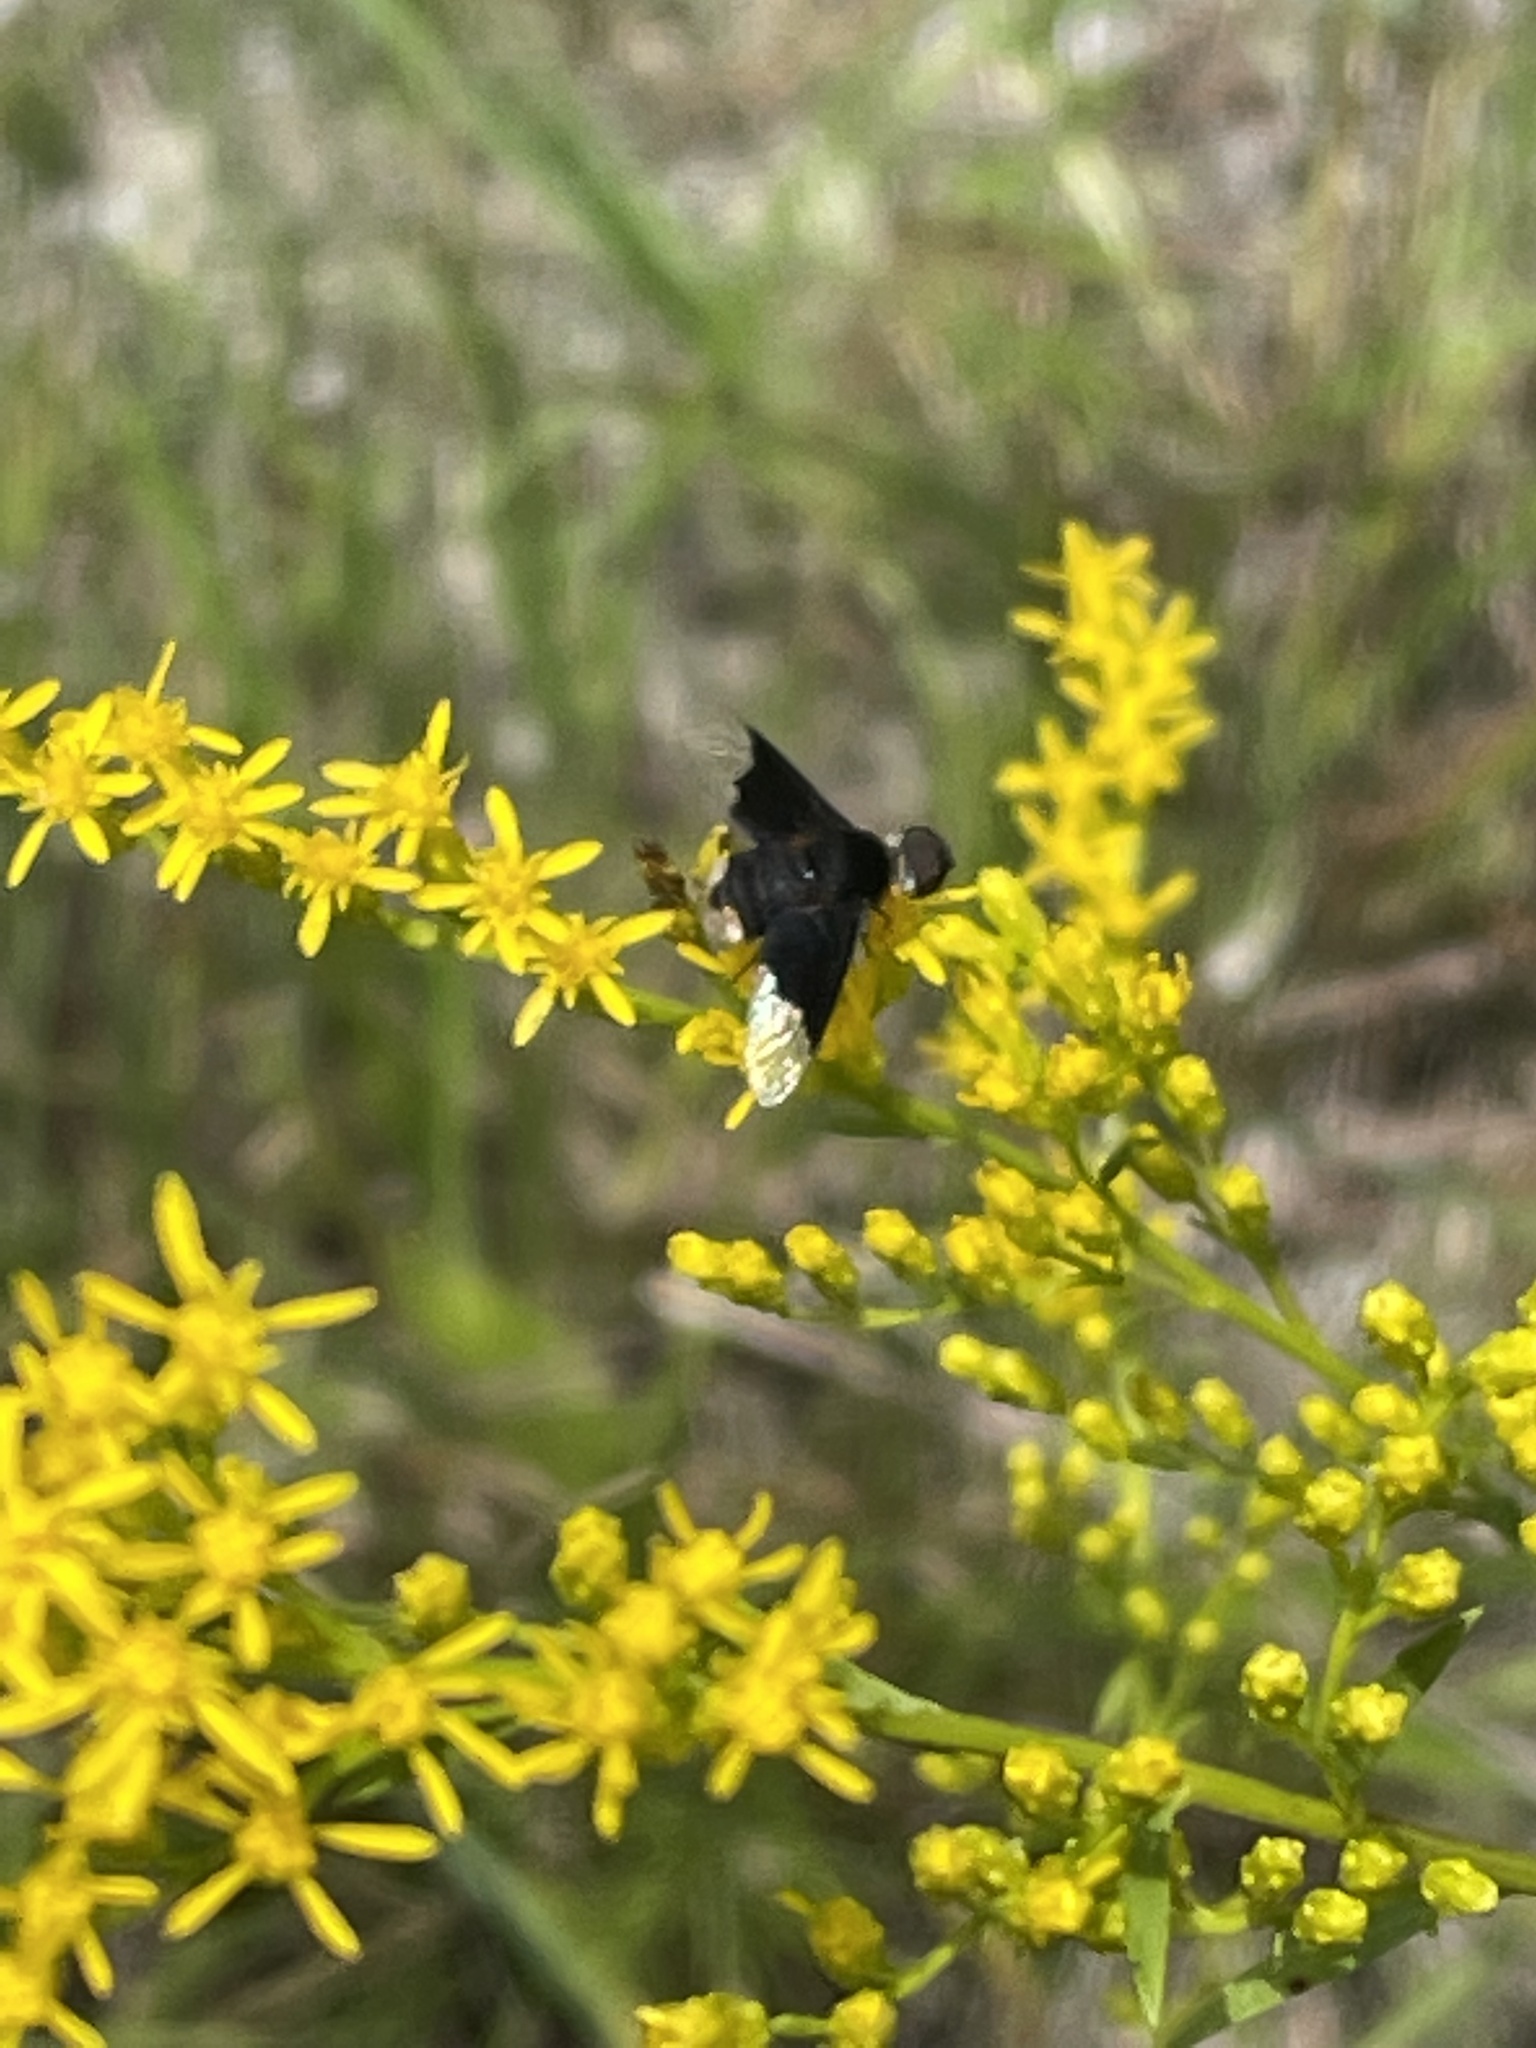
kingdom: Plantae
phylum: Tracheophyta
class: Magnoliopsida
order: Asterales
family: Asteraceae
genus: Solidago
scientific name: Solidago pinetorum
